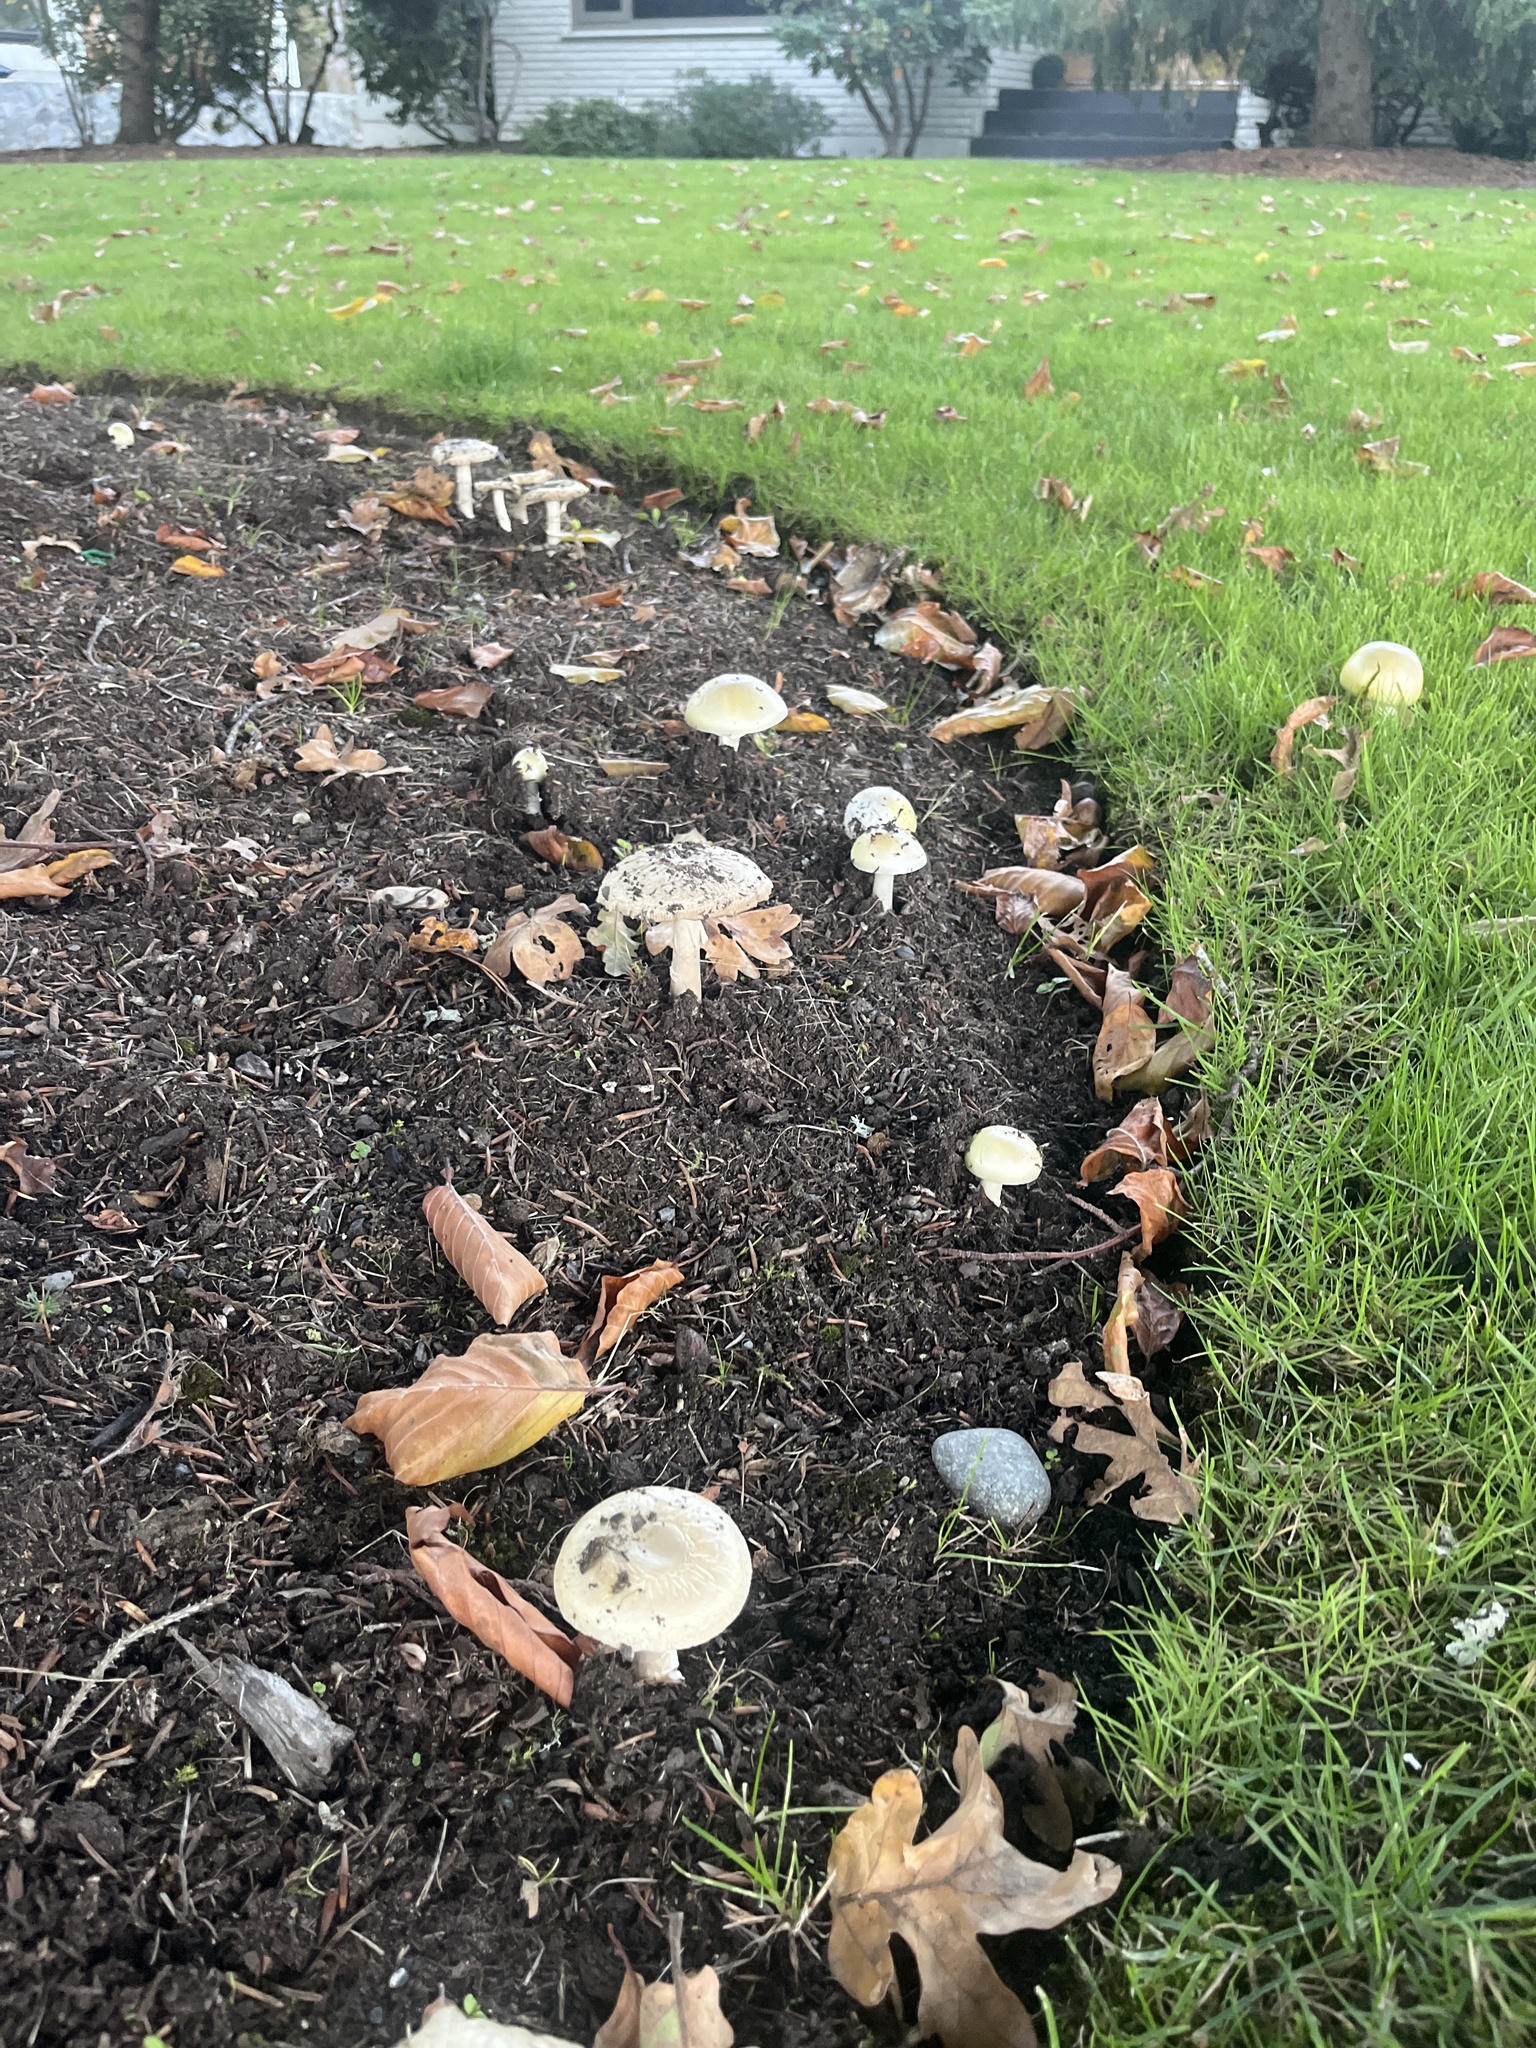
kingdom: Fungi
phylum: Basidiomycota
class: Agaricomycetes
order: Agaricales
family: Amanitaceae
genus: Amanita
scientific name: Amanita phalloides
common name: Death cap
